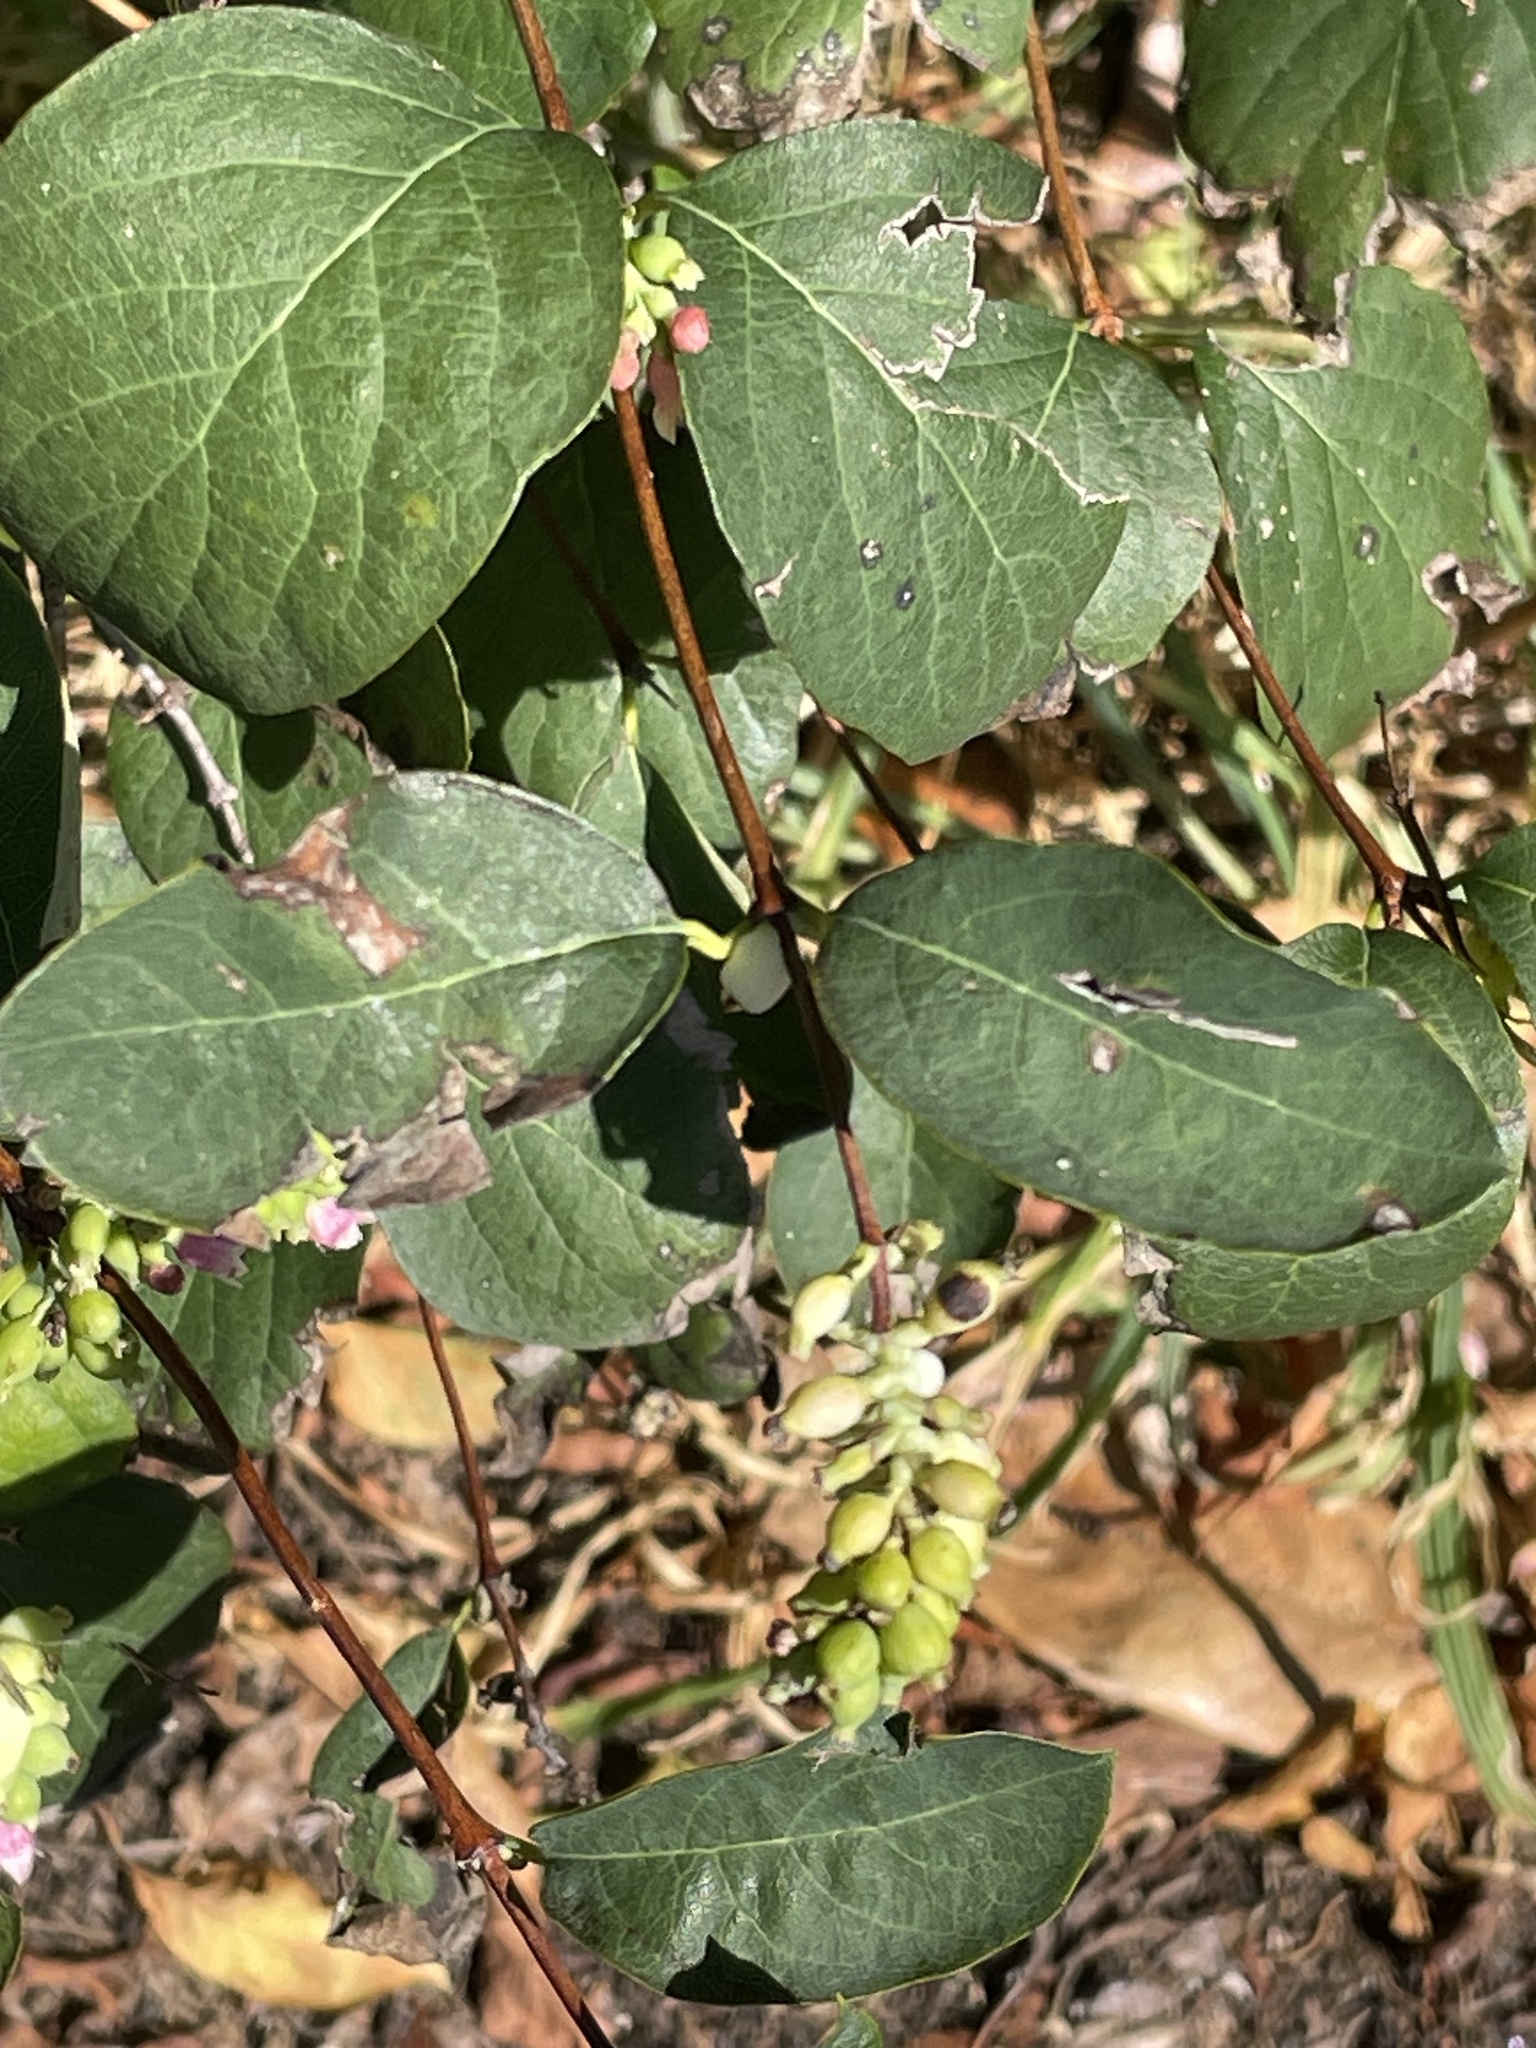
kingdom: Plantae
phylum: Tracheophyta
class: Magnoliopsida
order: Dipsacales
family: Caprifoliaceae
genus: Symphoricarpos
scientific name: Symphoricarpos albus
